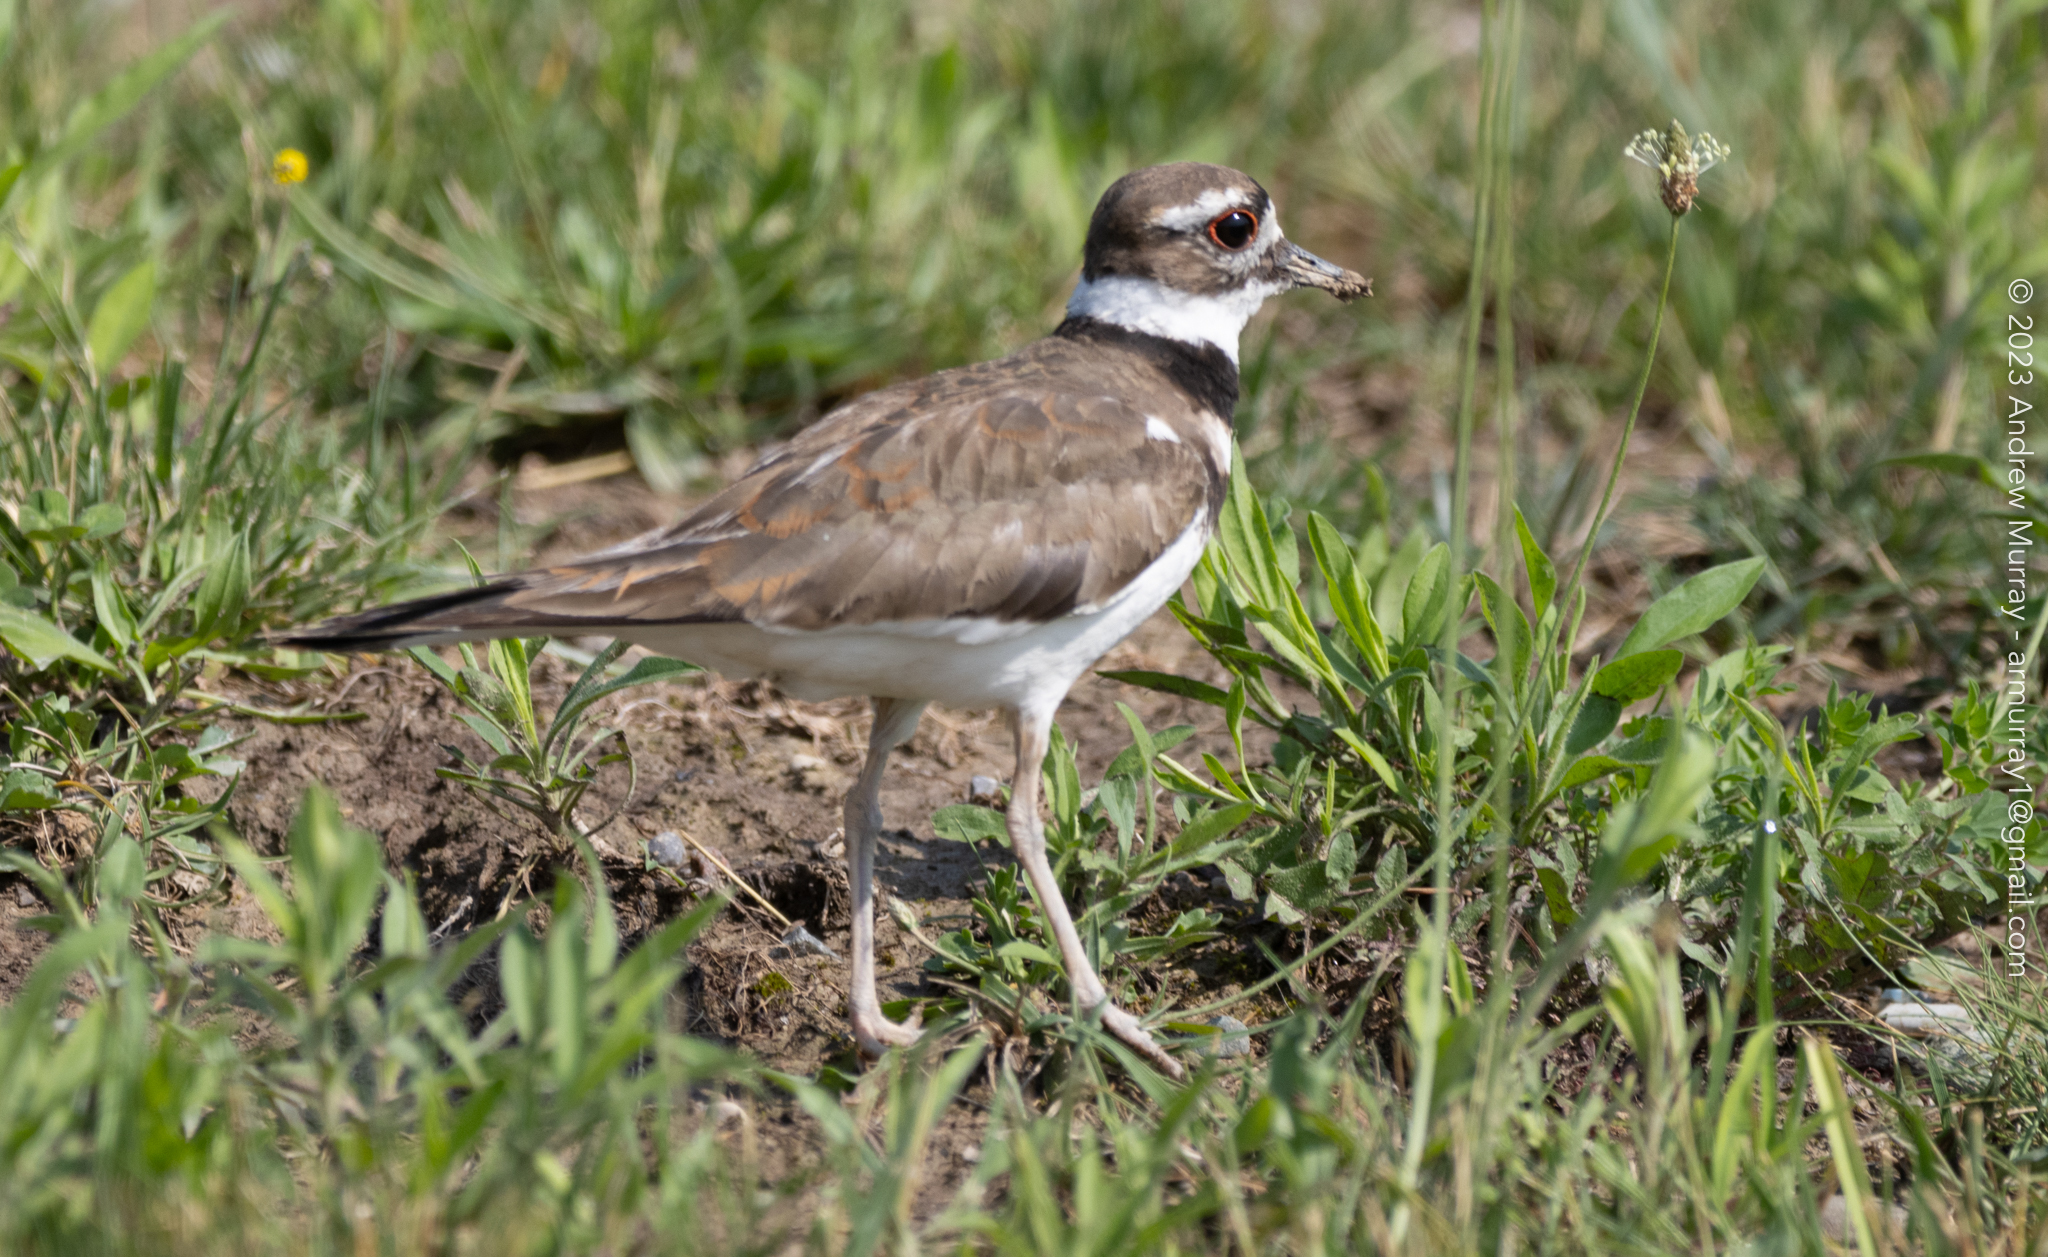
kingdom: Animalia
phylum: Chordata
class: Aves
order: Charadriiformes
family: Charadriidae
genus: Charadrius
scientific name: Charadrius vociferus
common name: Killdeer
